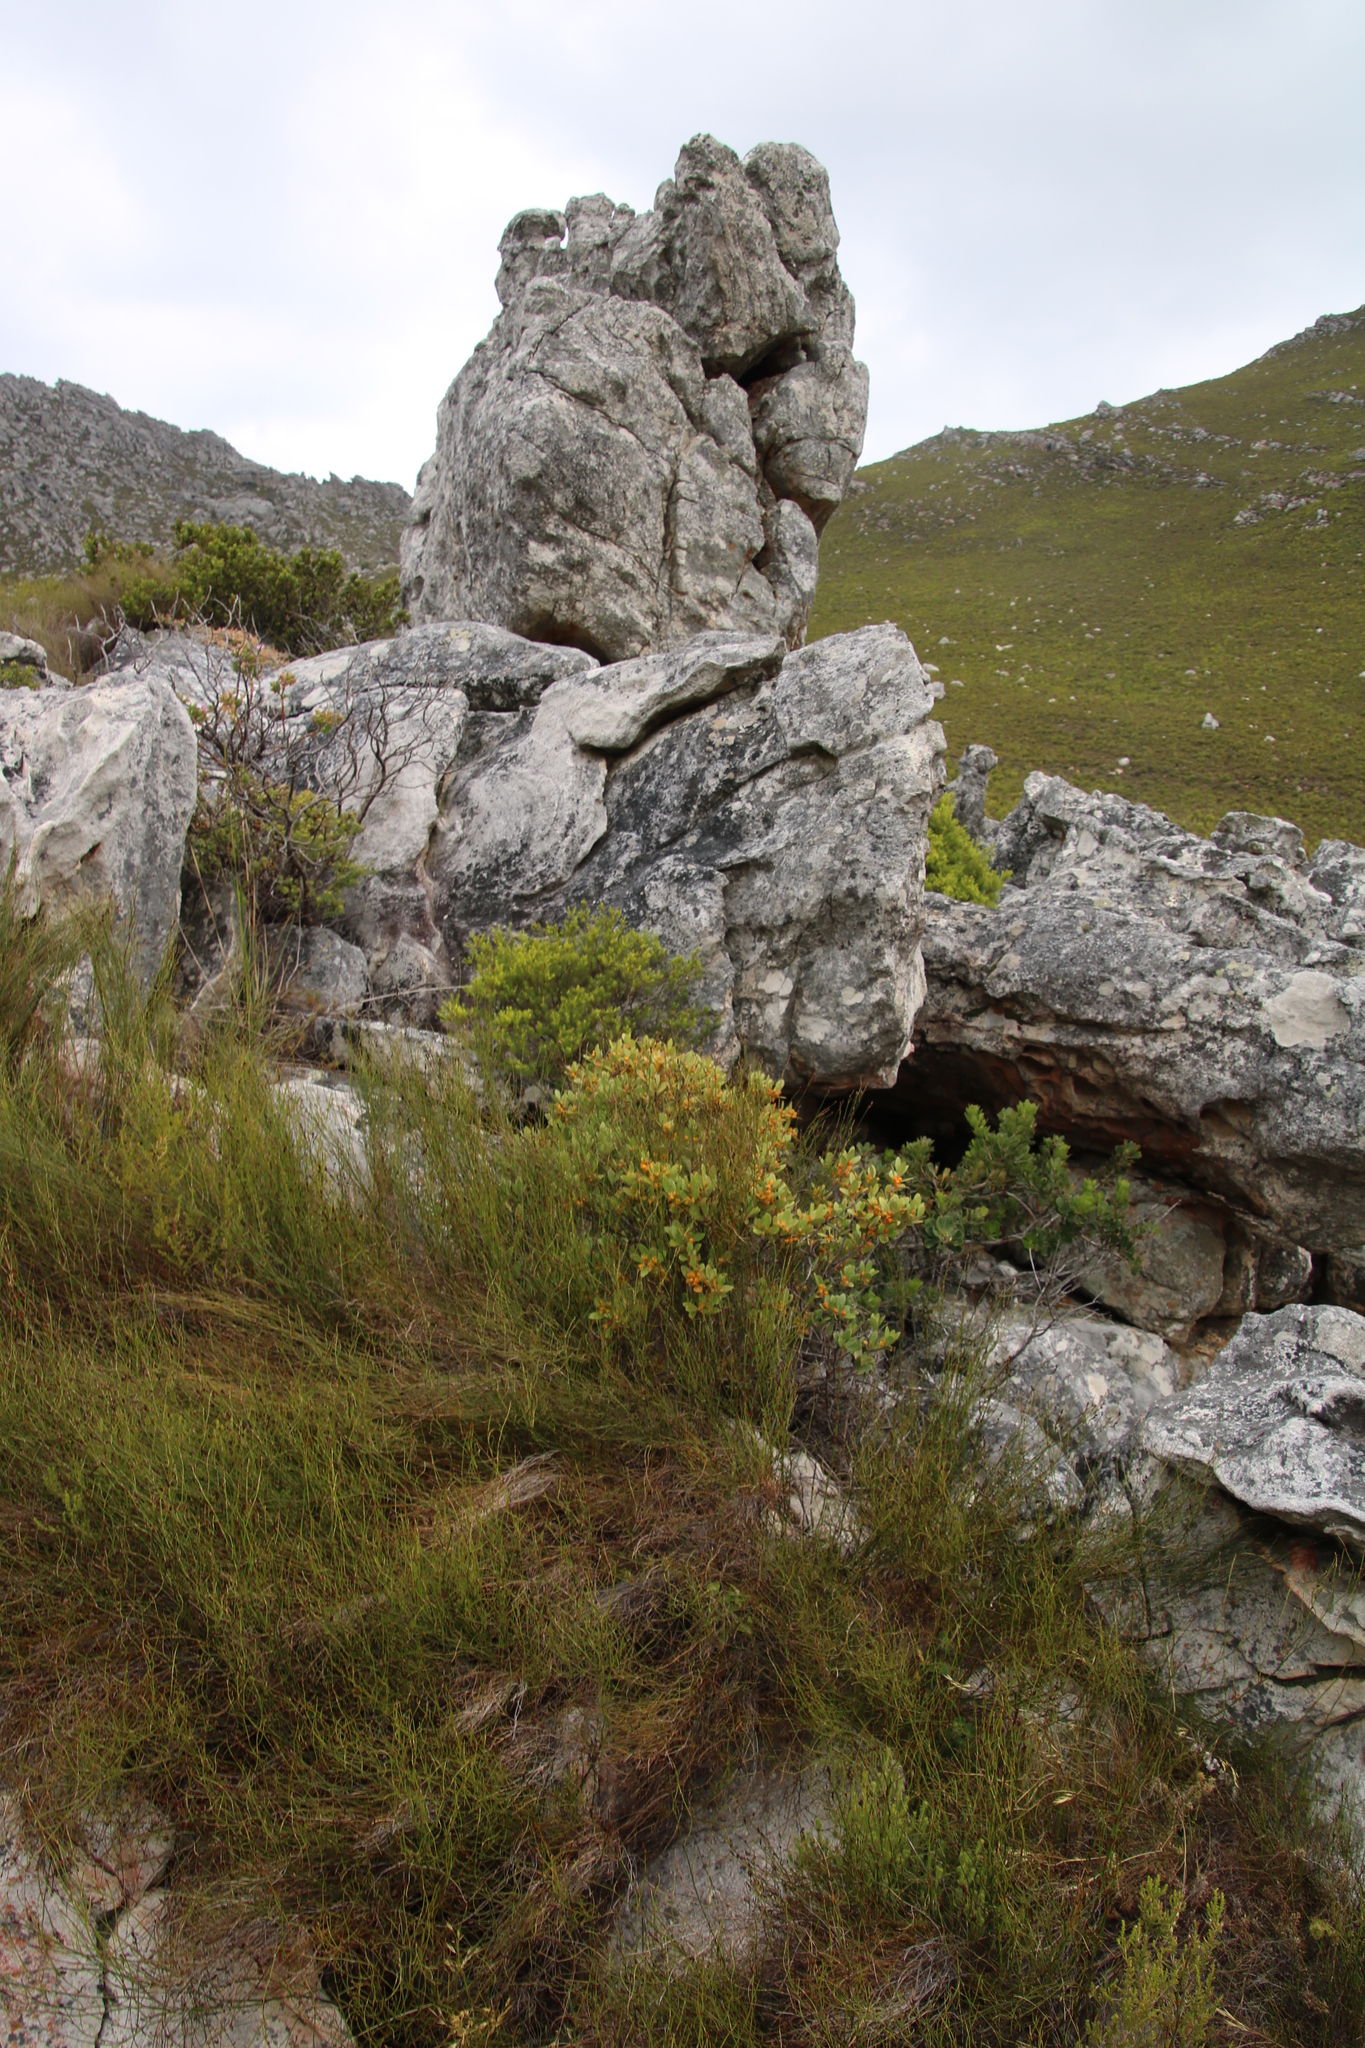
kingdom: Plantae
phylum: Tracheophyta
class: Magnoliopsida
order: Celastrales
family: Celastraceae
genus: Pterocelastrus
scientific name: Pterocelastrus tricuspidatus
